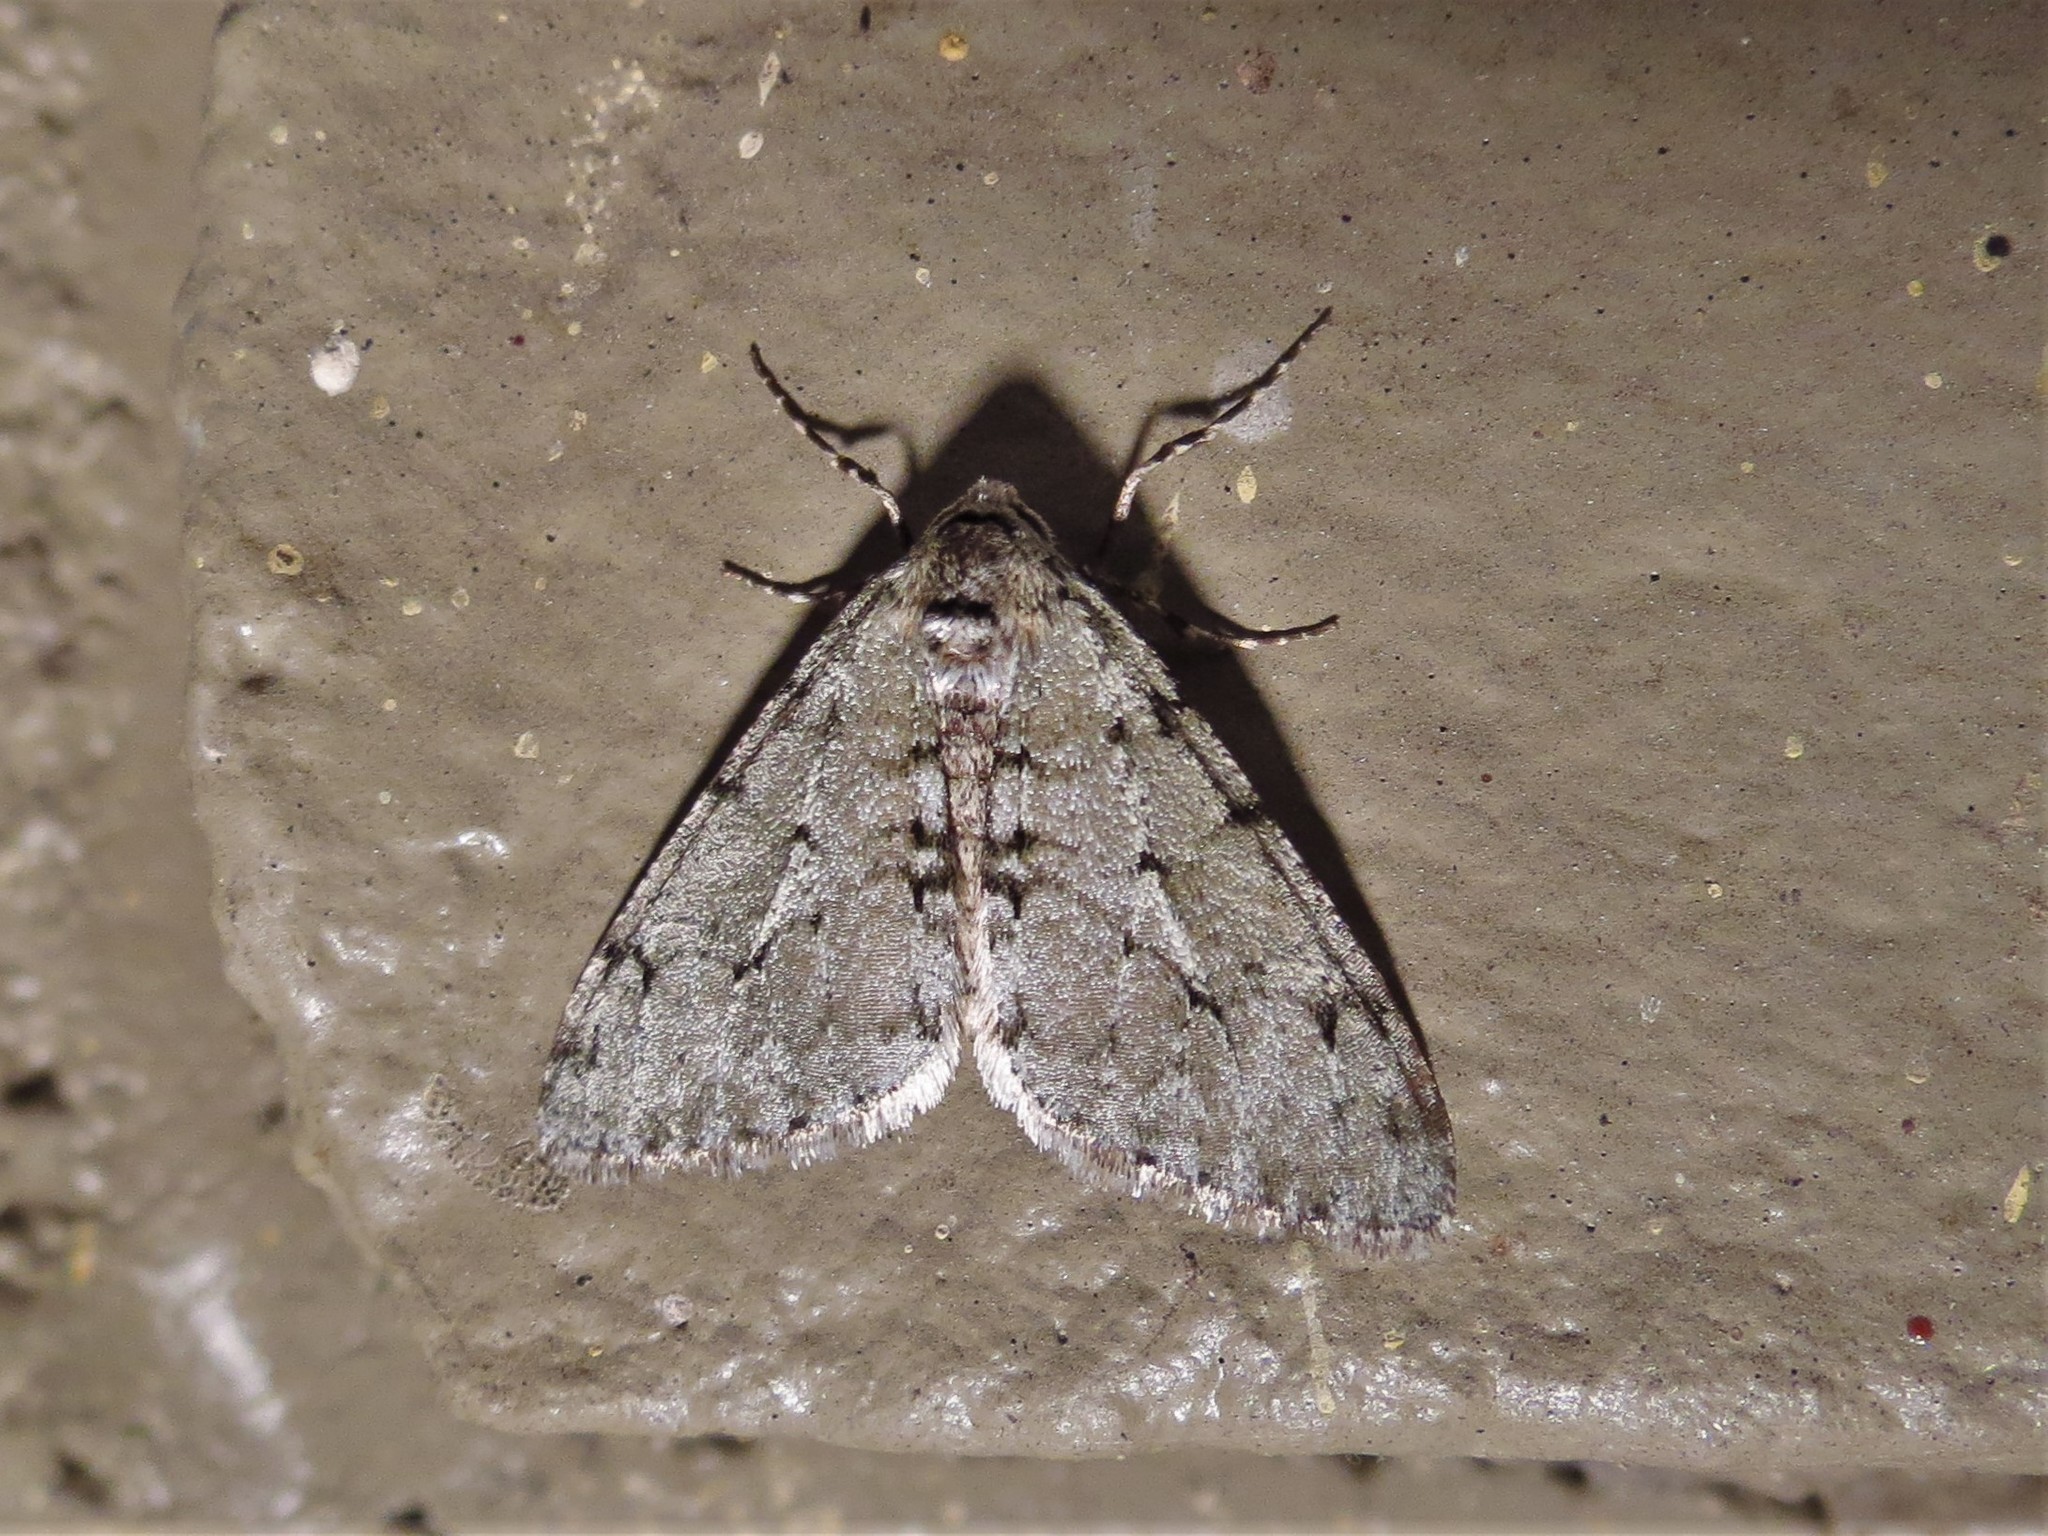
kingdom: Animalia
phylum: Arthropoda
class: Insecta
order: Lepidoptera
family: Geometridae
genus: Phigalia
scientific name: Phigalia strigataria
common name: Small phigalia
